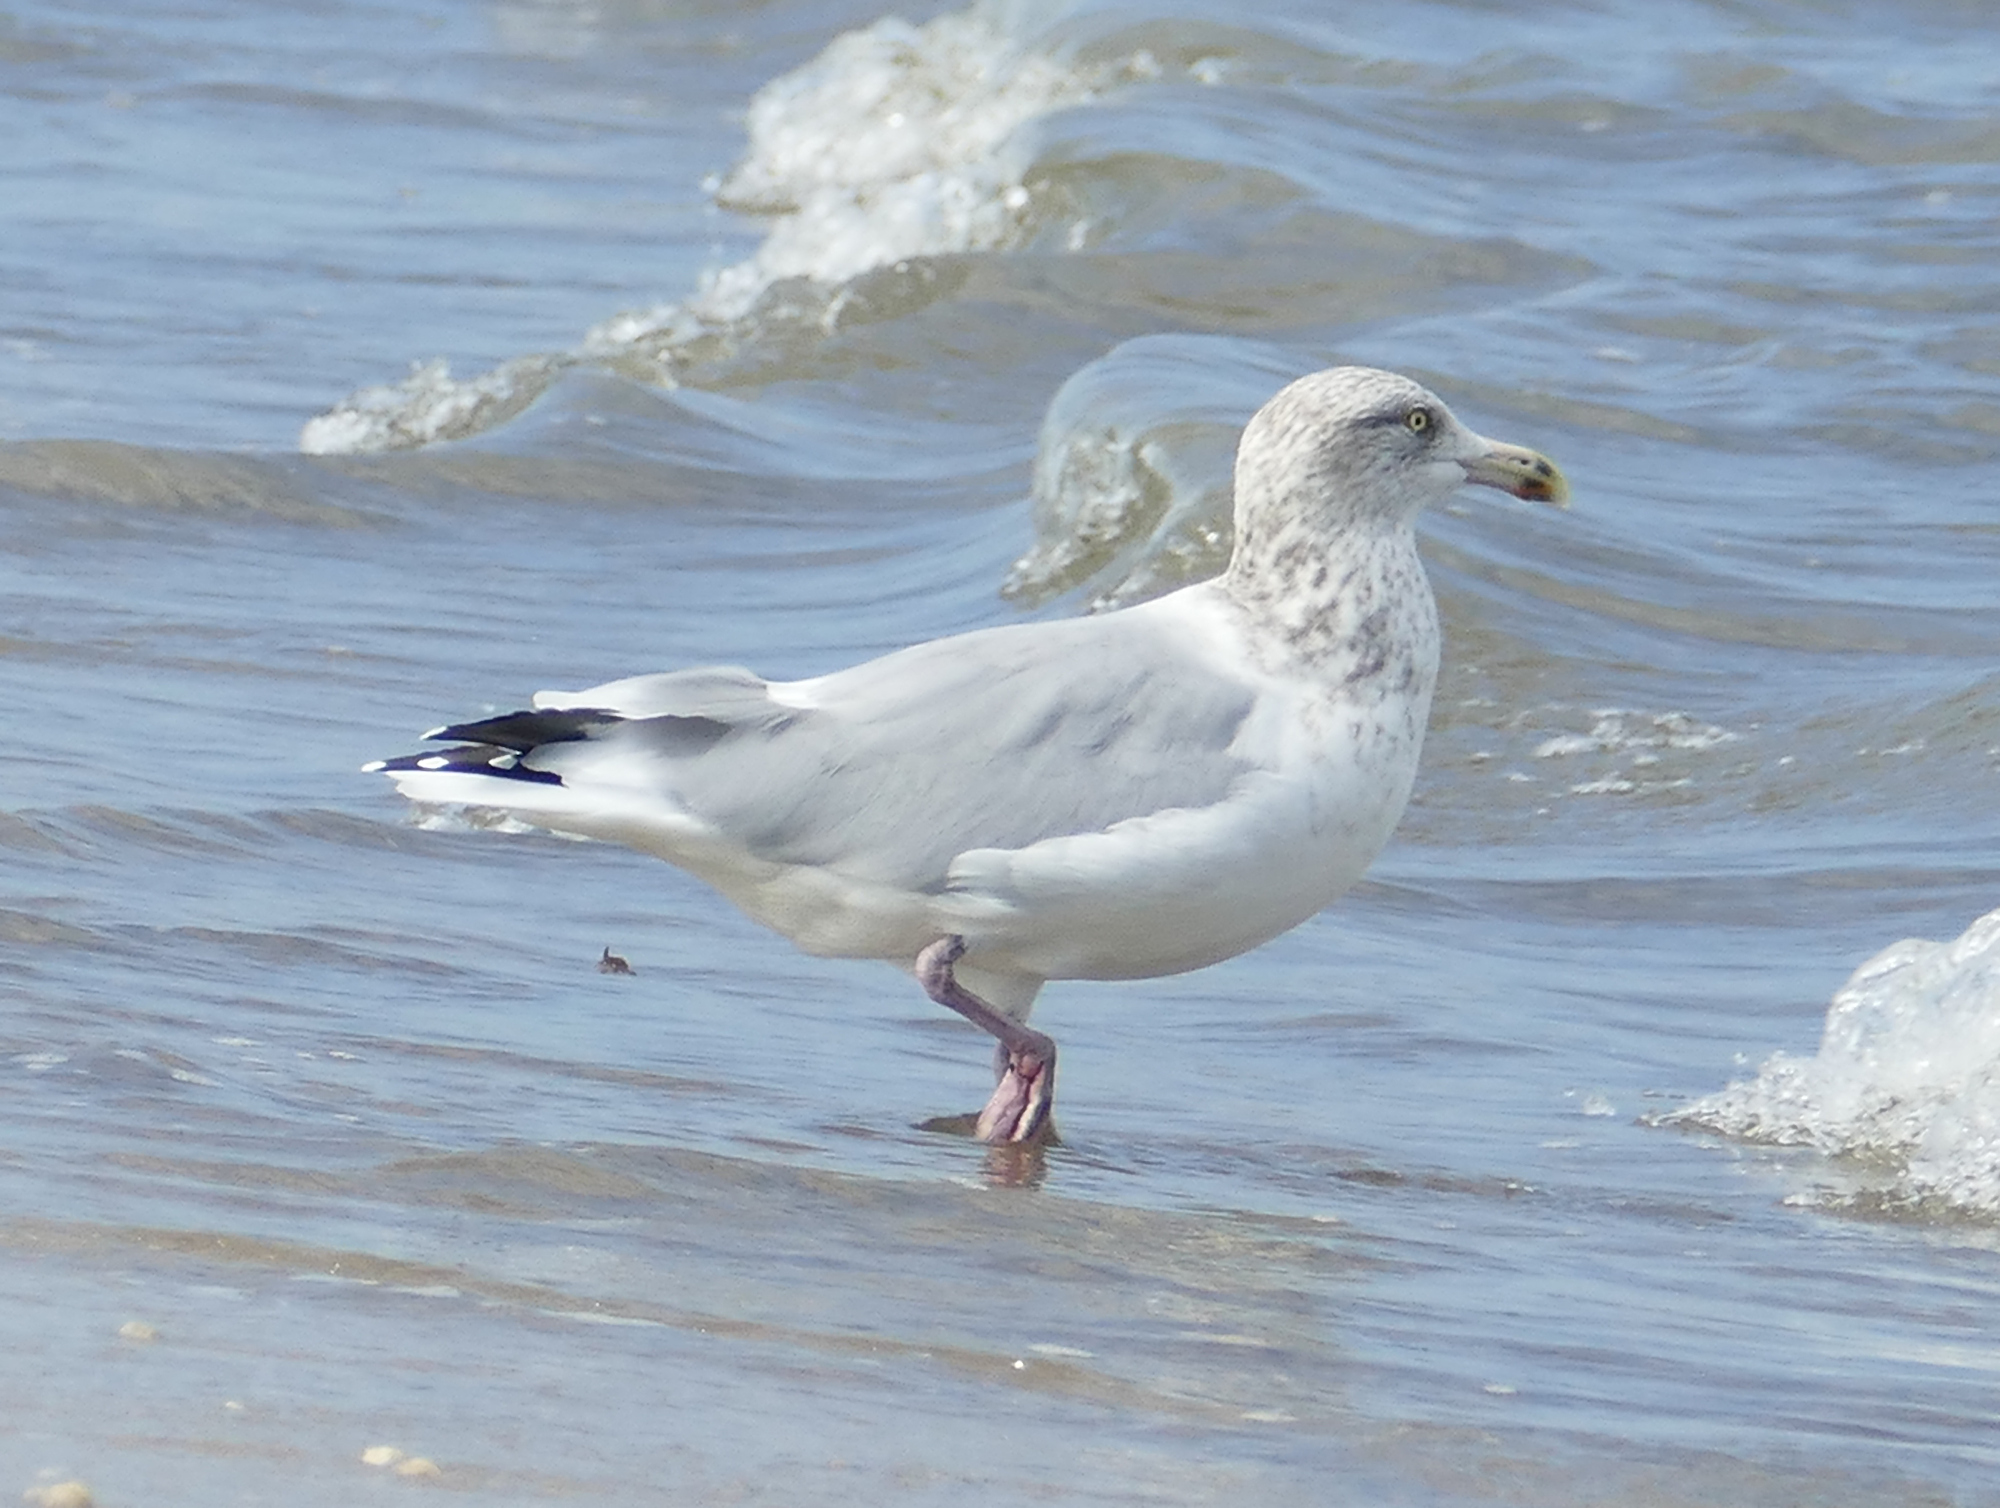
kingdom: Animalia
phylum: Chordata
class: Aves
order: Charadriiformes
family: Laridae
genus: Larus
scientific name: Larus argentatus
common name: Herring gull
